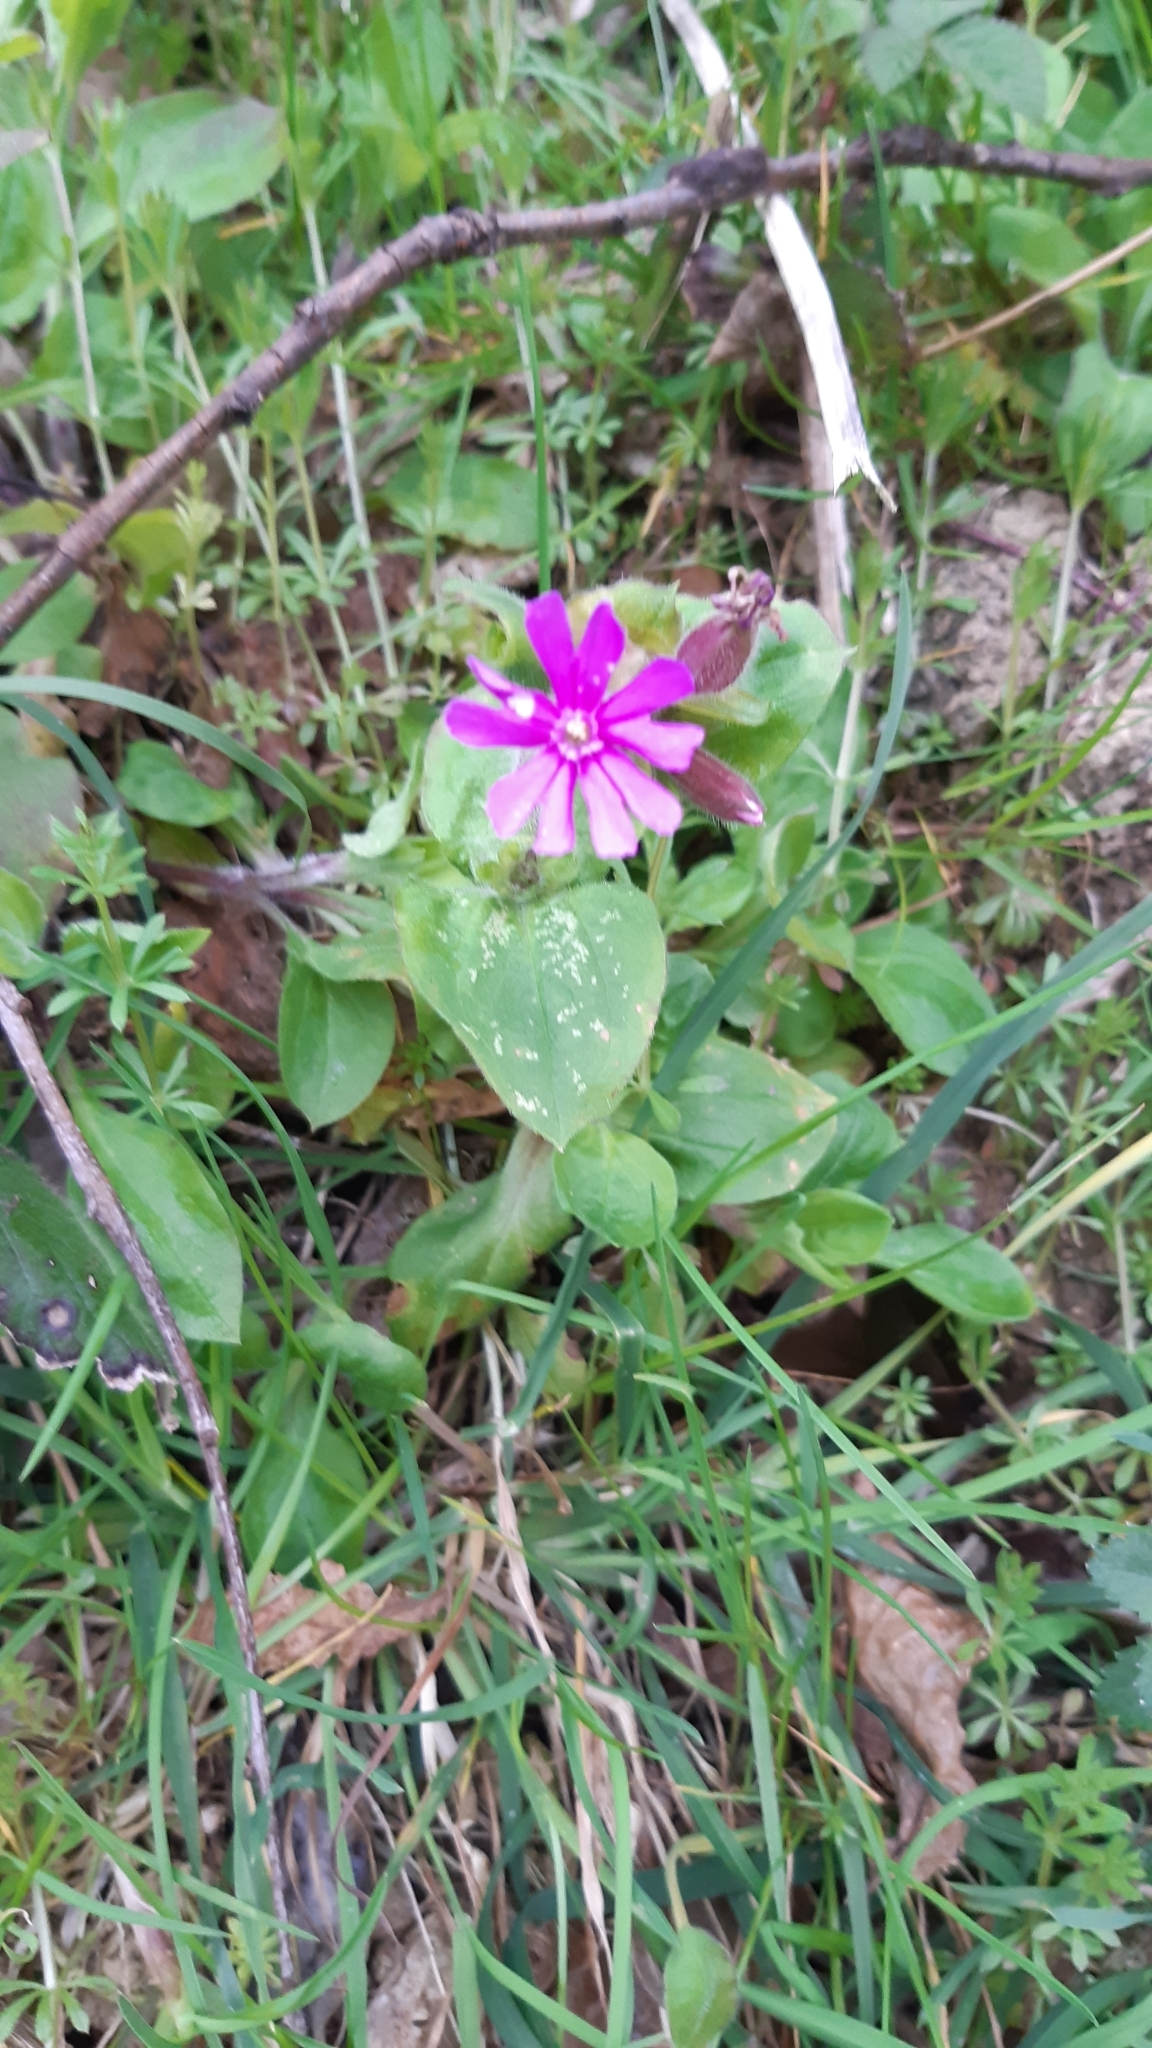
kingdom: Plantae
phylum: Tracheophyta
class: Magnoliopsida
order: Caryophyllales
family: Caryophyllaceae
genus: Silene
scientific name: Silene dioica
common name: Red campion
